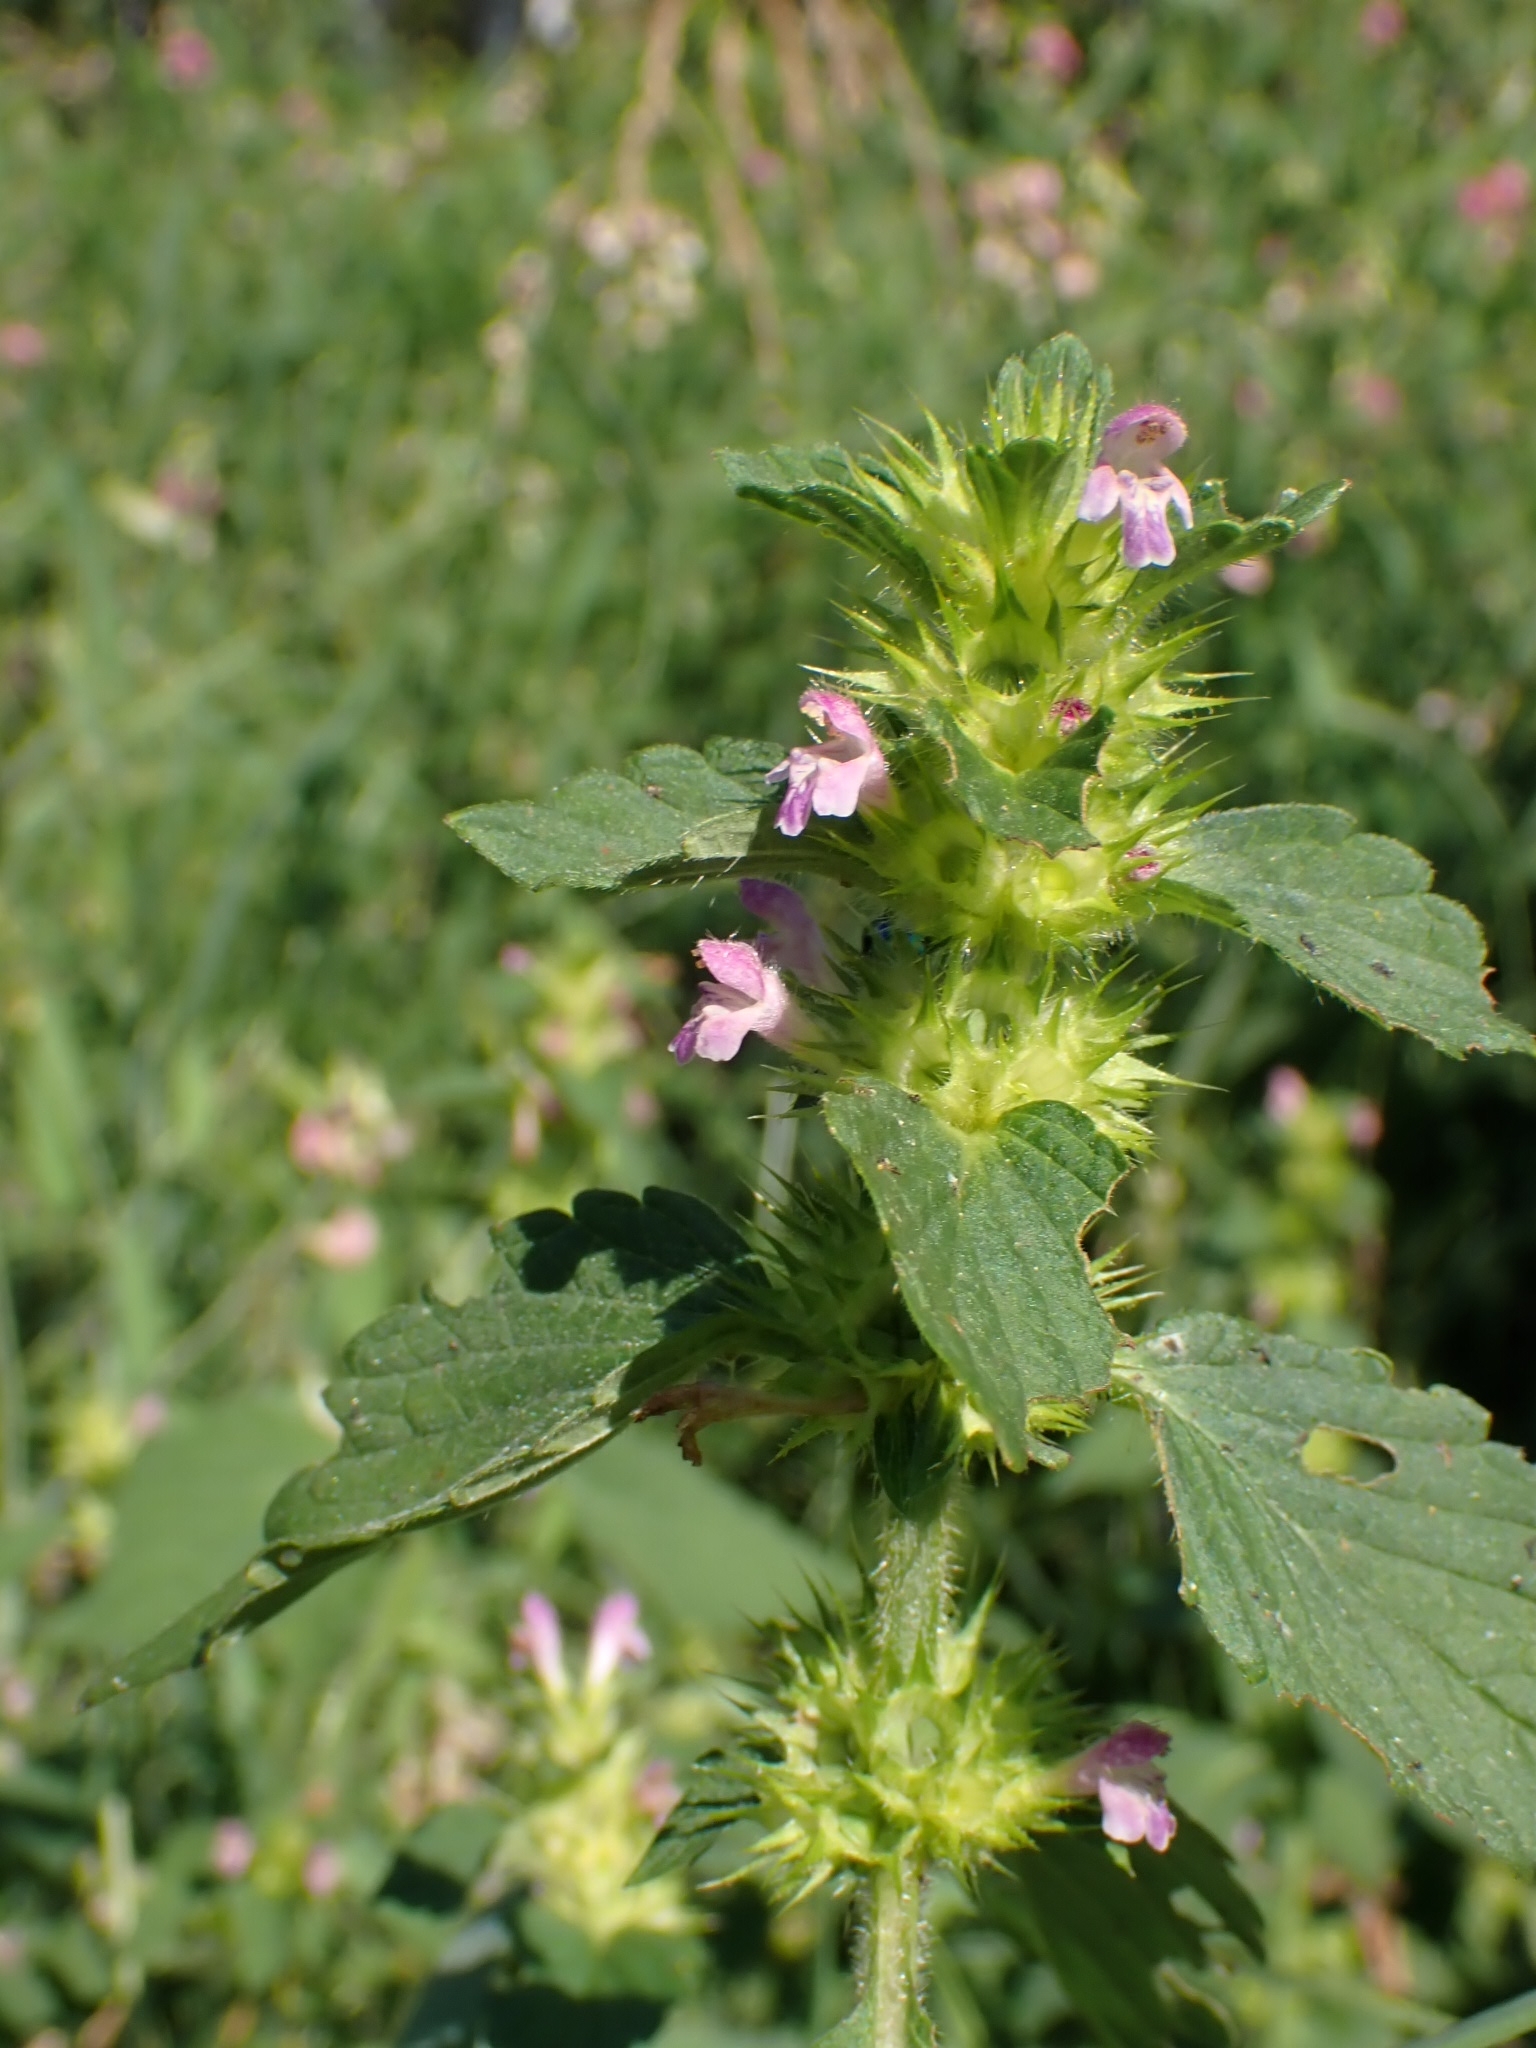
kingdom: Plantae
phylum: Tracheophyta
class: Magnoliopsida
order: Lamiales
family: Lamiaceae
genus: Galeopsis
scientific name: Galeopsis bifida
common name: Bifid hemp-nettle
